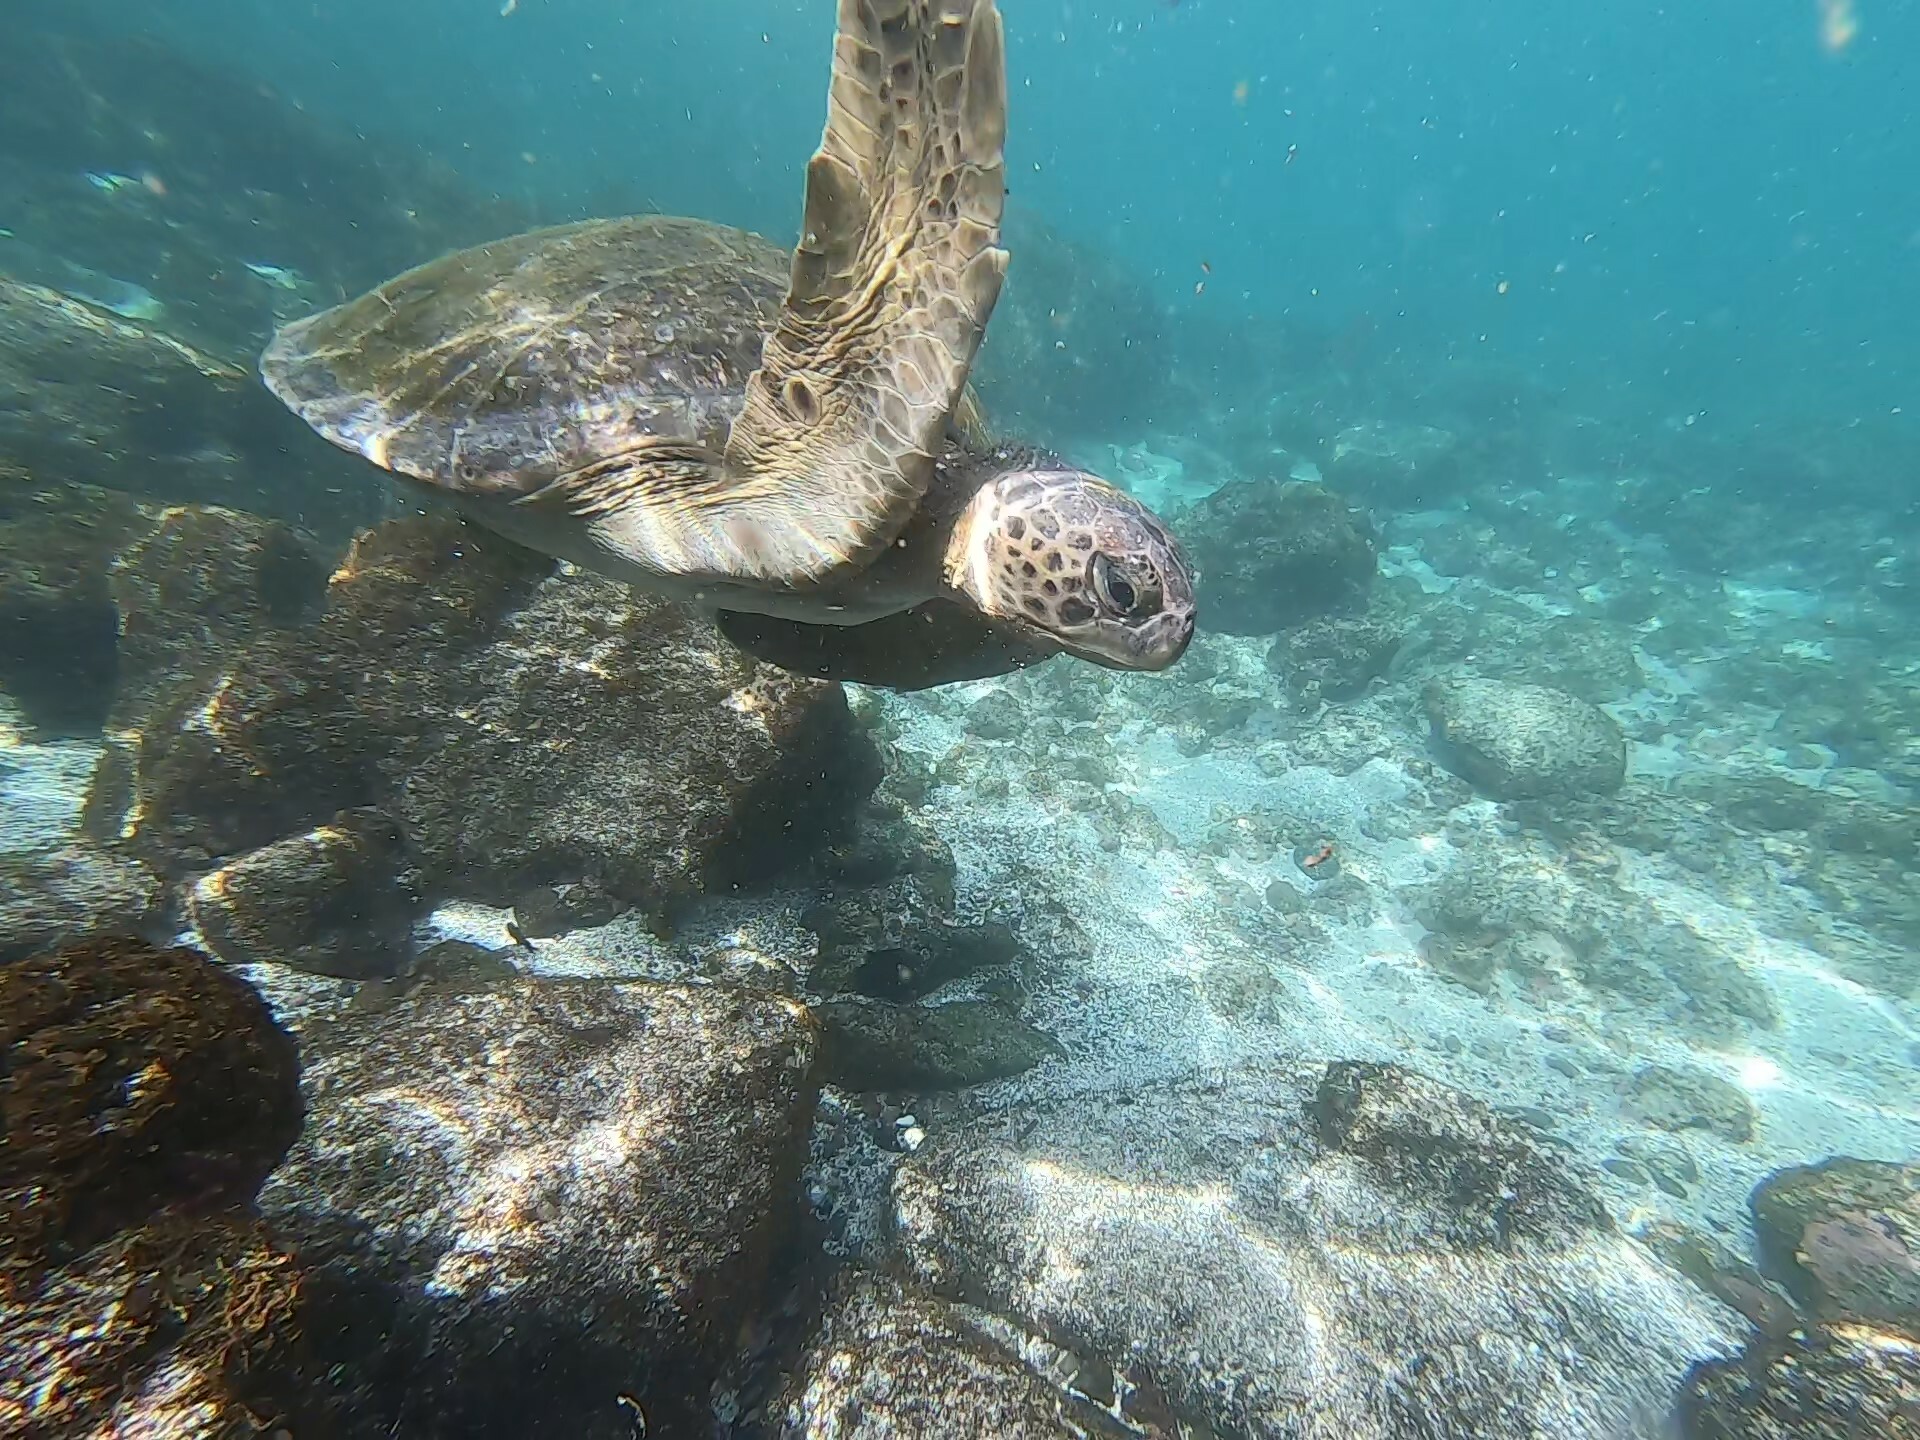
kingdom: Animalia
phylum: Chordata
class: Testudines
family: Cheloniidae
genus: Chelonia
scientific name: Chelonia mydas
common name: Green turtle
